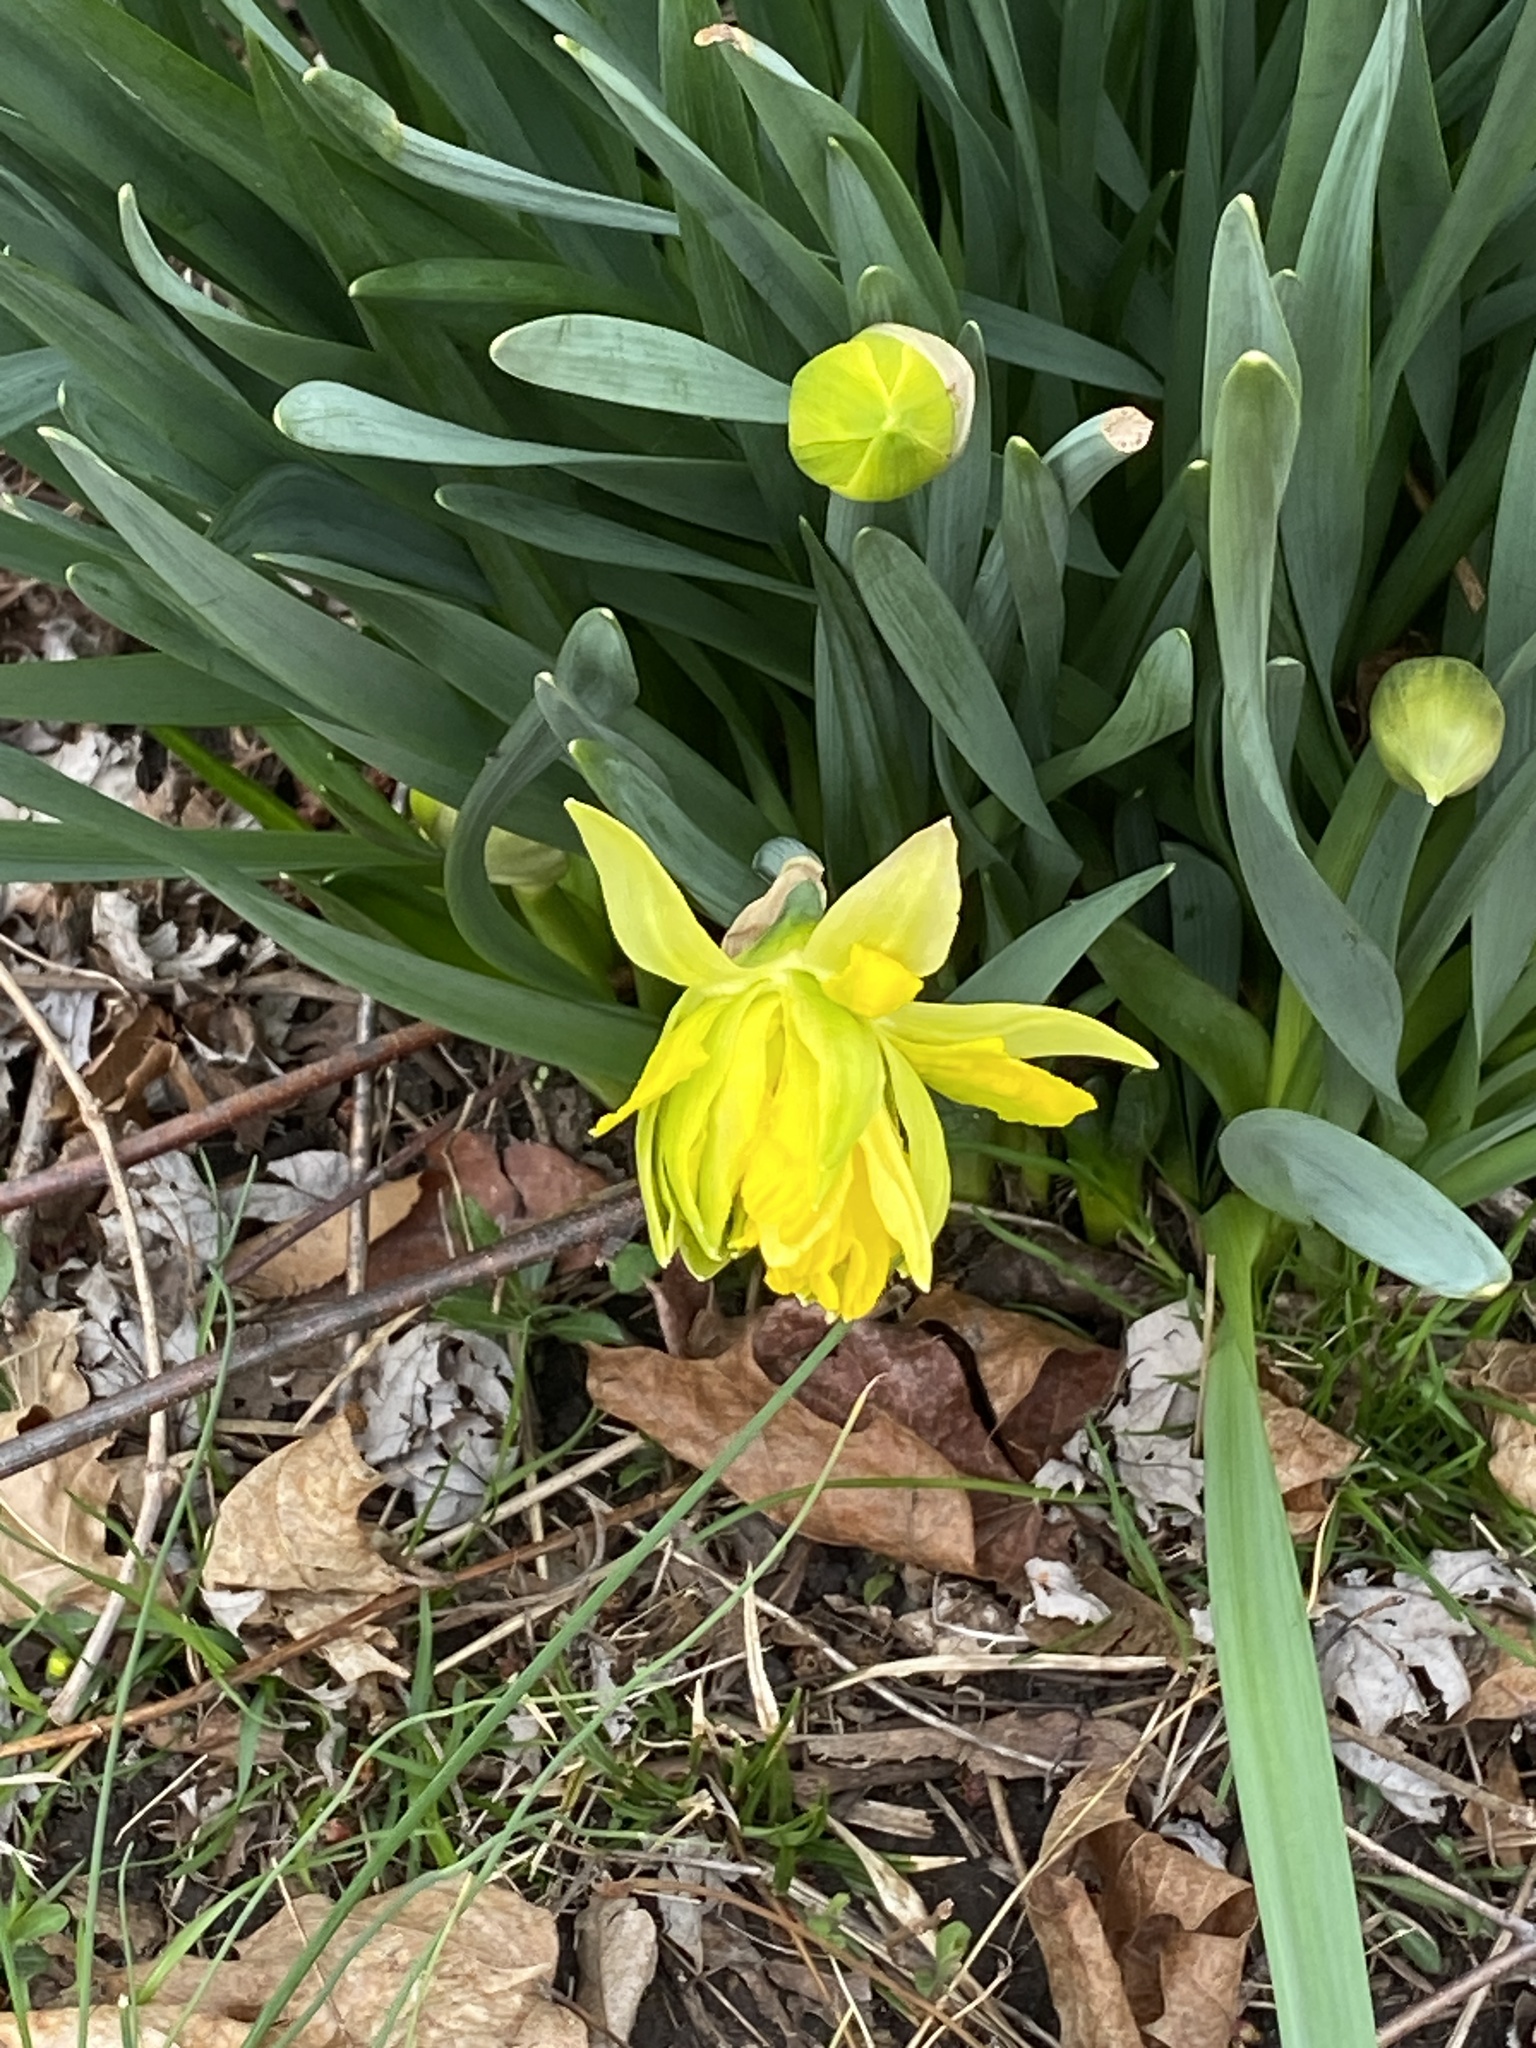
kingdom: Plantae
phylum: Tracheophyta
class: Liliopsida
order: Asparagales
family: Amaryllidaceae
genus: Narcissus
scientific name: Narcissus
